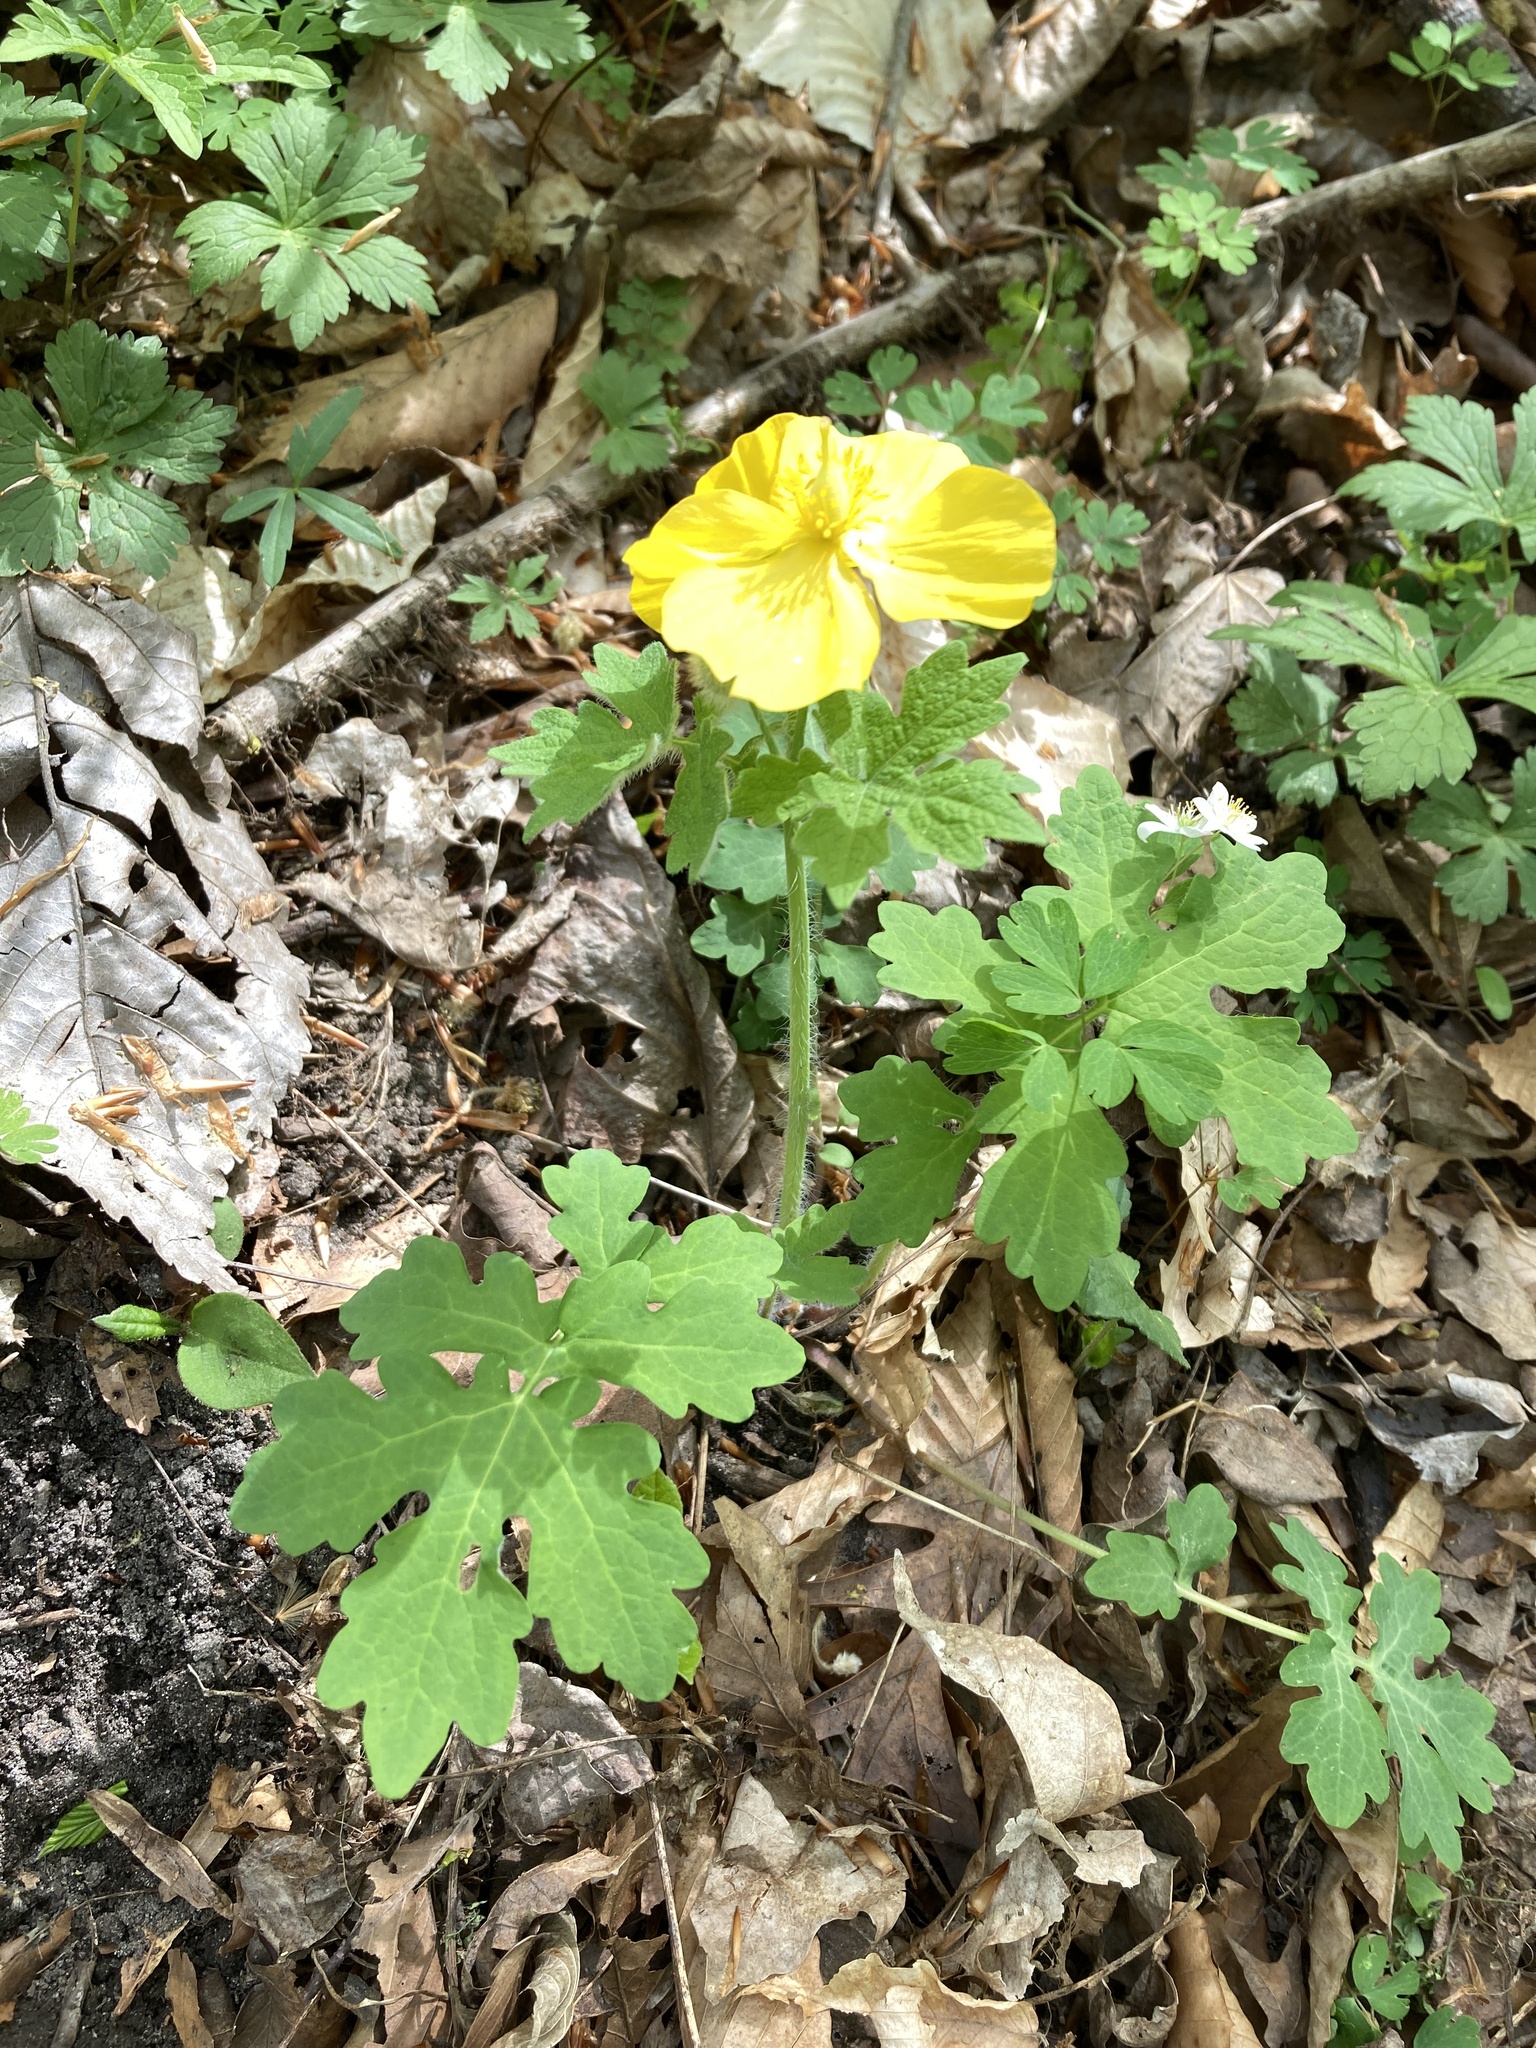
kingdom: Plantae
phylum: Tracheophyta
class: Magnoliopsida
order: Ranunculales
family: Papaveraceae
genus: Stylophorum
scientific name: Stylophorum diphyllum
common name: Celandine poppy
